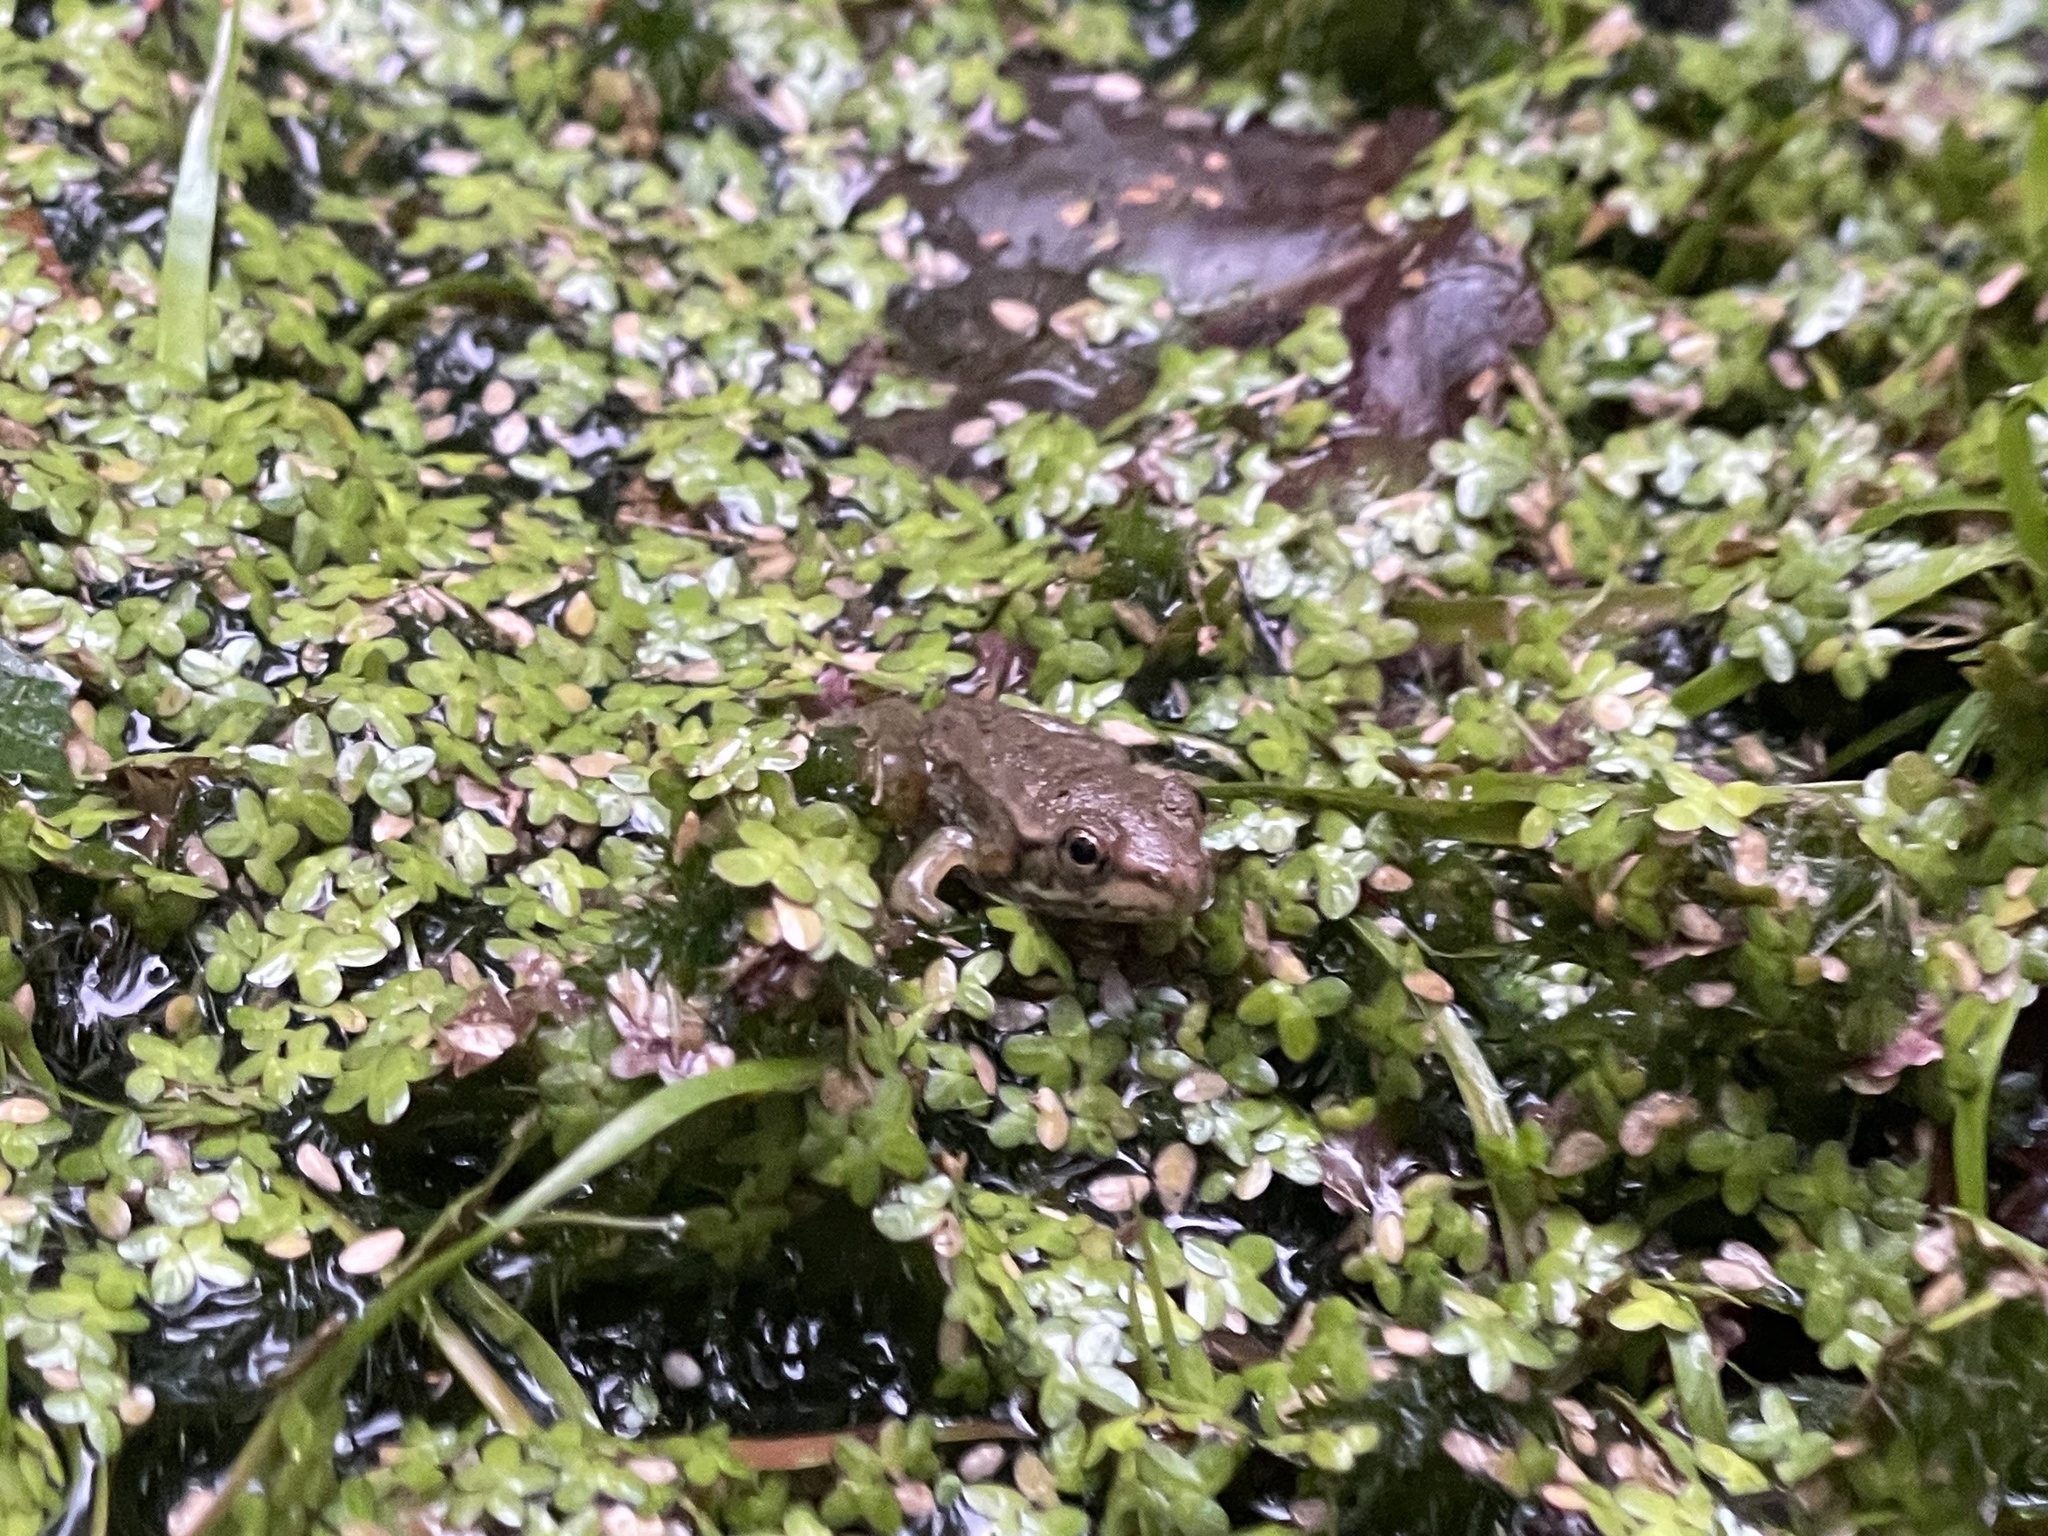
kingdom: Animalia
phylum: Chordata
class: Amphibia
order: Anura
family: Ranidae
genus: Lithobates
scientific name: Lithobates clamitans
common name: Green frog
